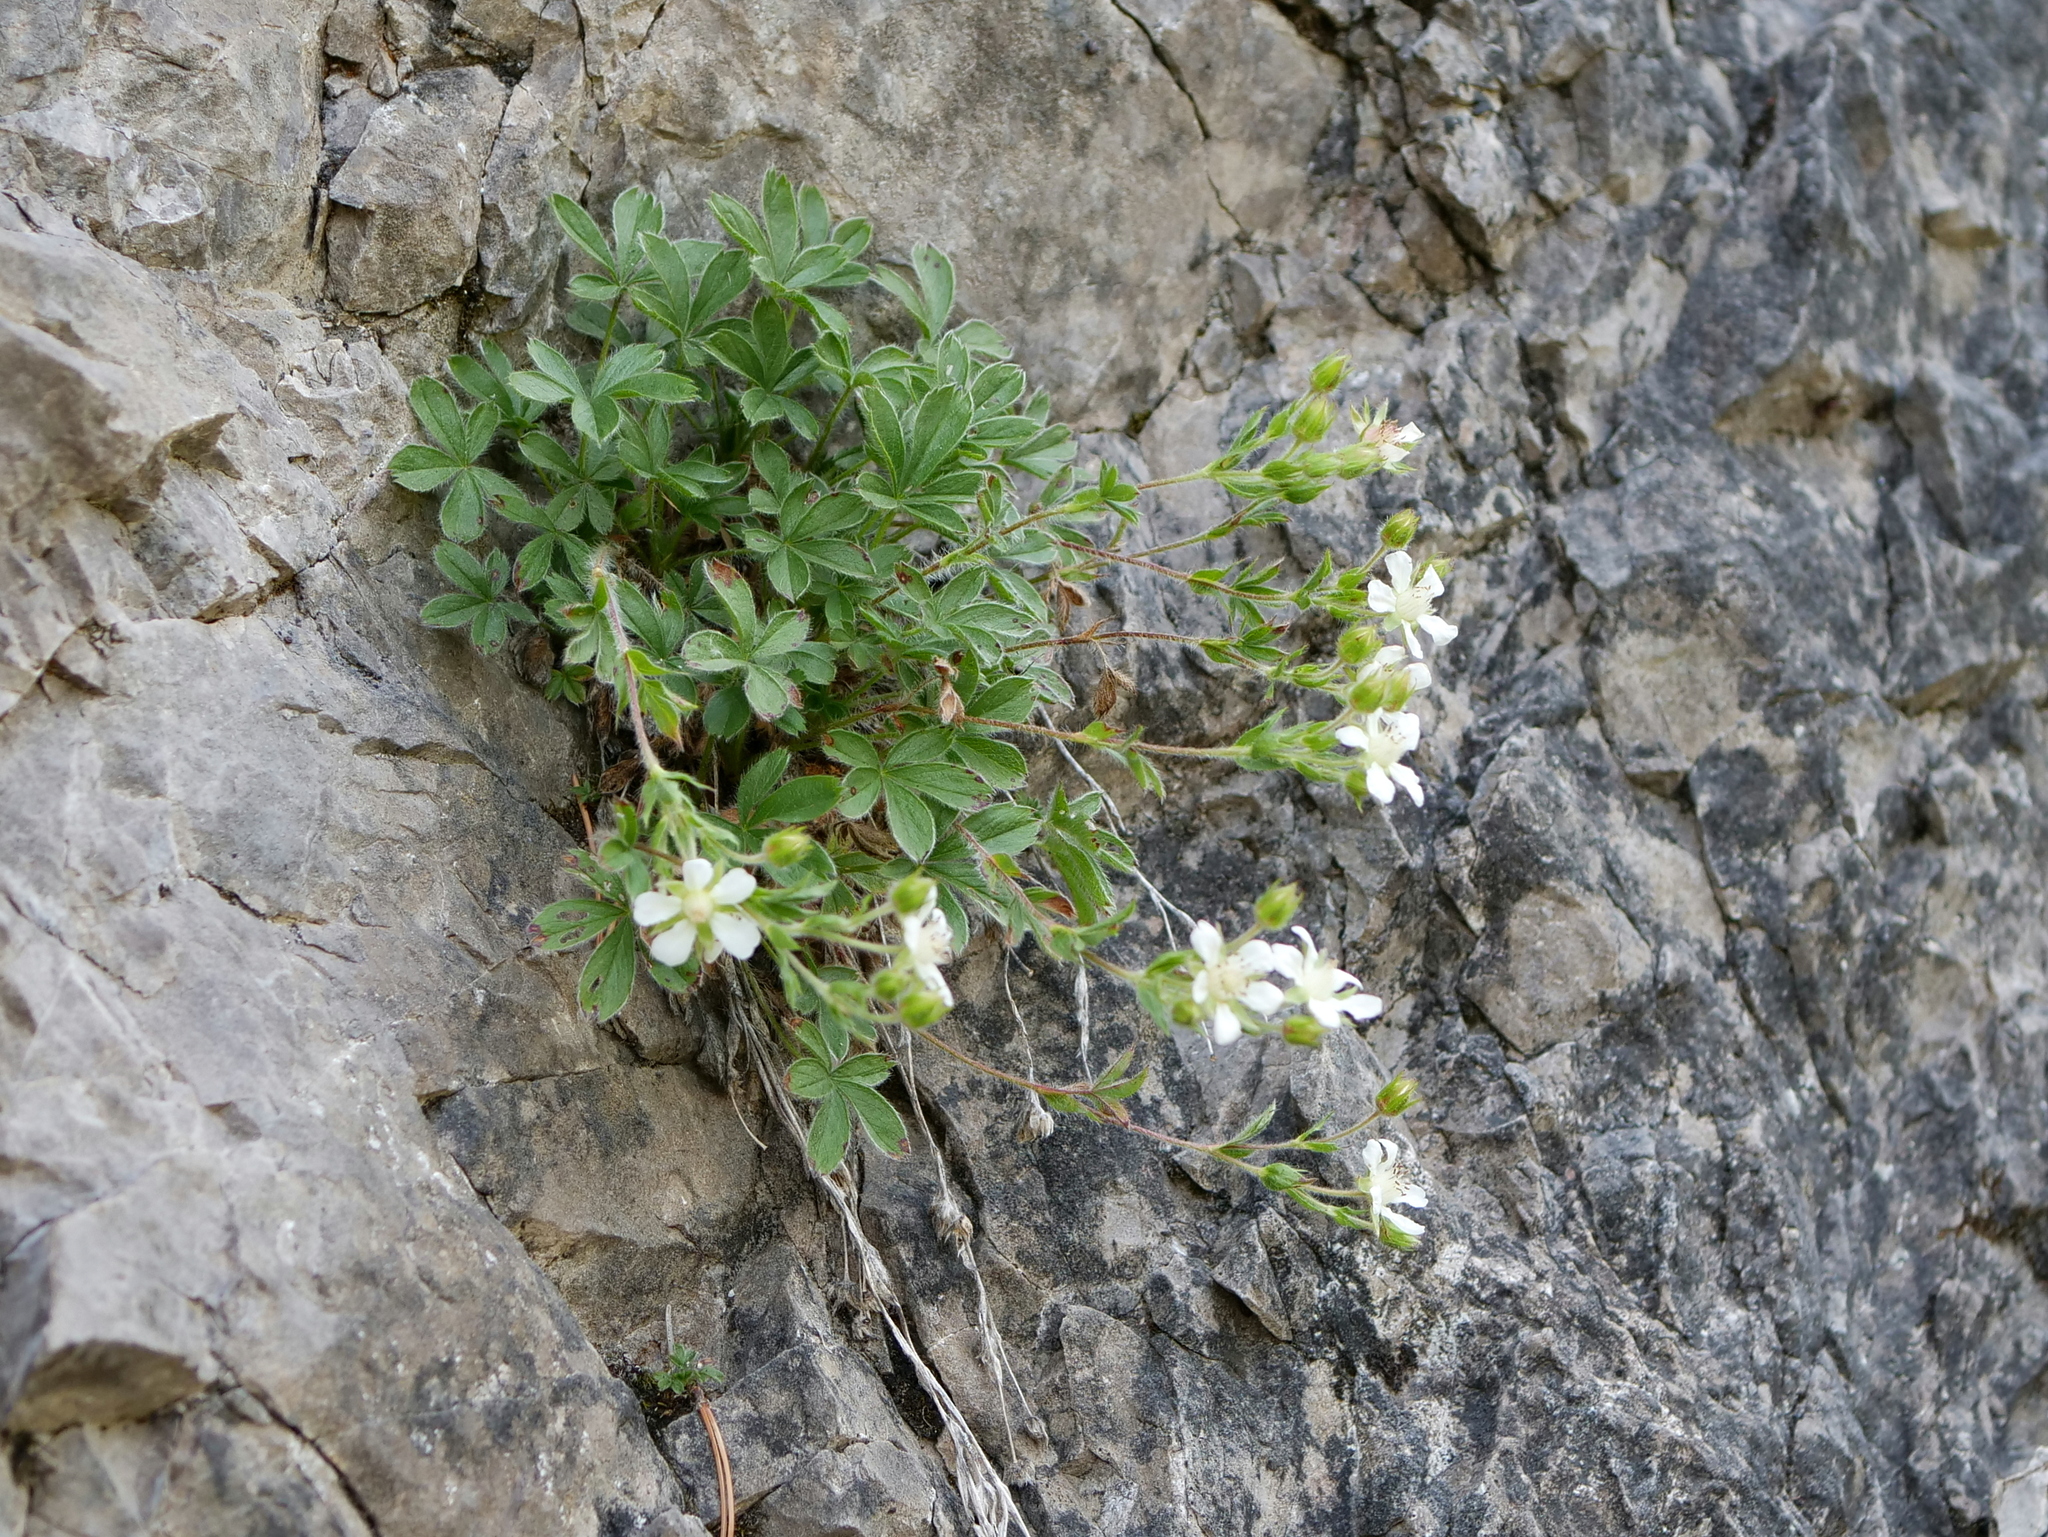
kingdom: Plantae
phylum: Tracheophyta
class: Magnoliopsida
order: Rosales
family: Rosaceae
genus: Potentilla
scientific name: Potentilla caulescens
